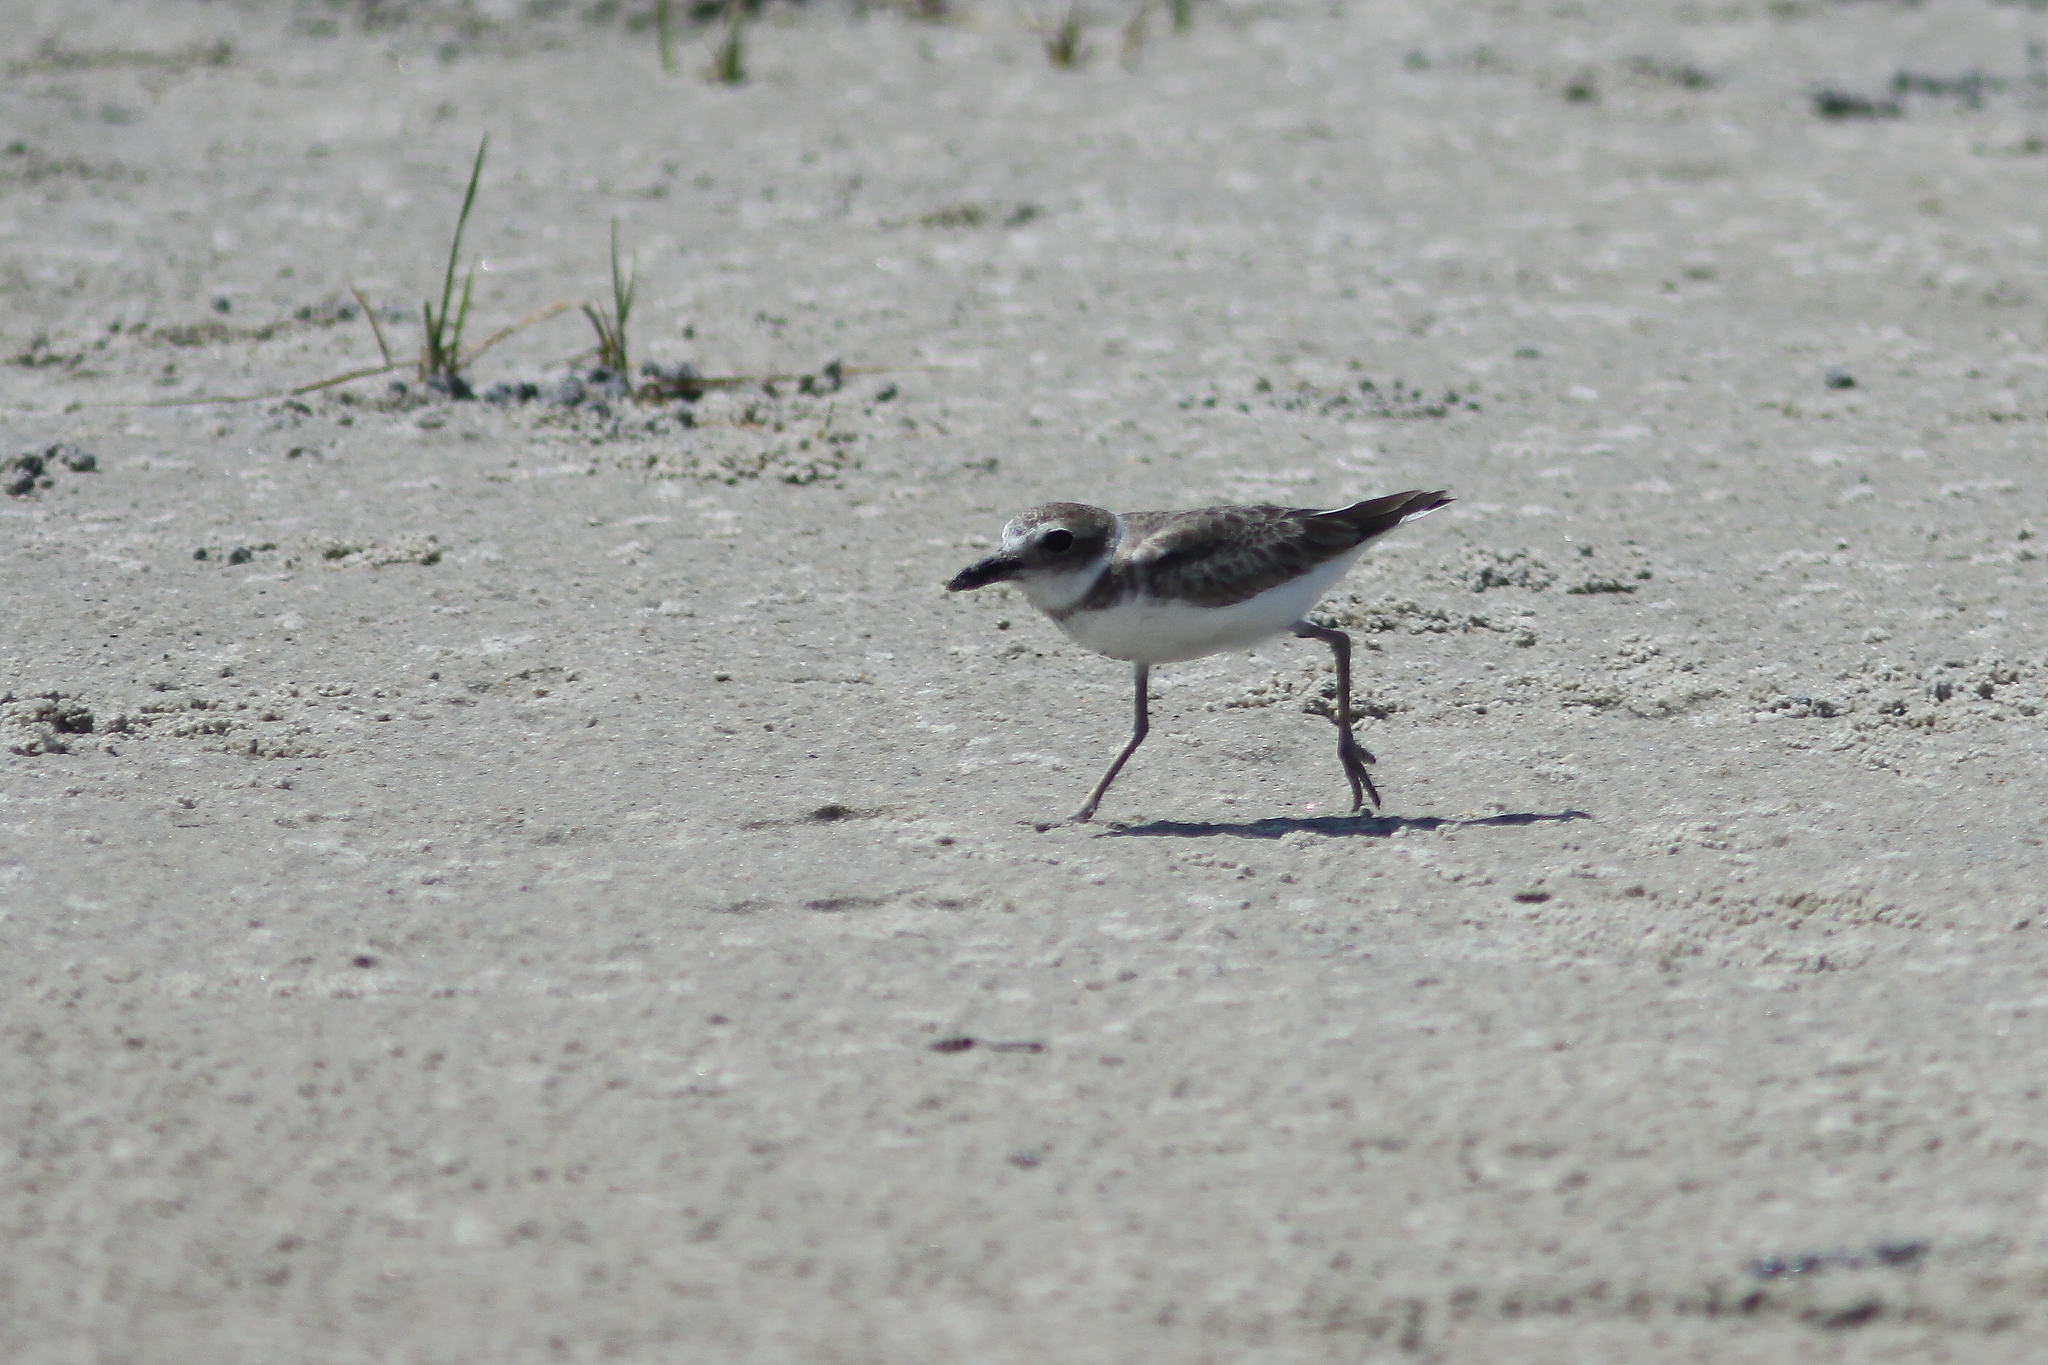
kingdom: Animalia
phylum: Chordata
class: Aves
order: Charadriiformes
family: Charadriidae
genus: Anarhynchus
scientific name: Anarhynchus
